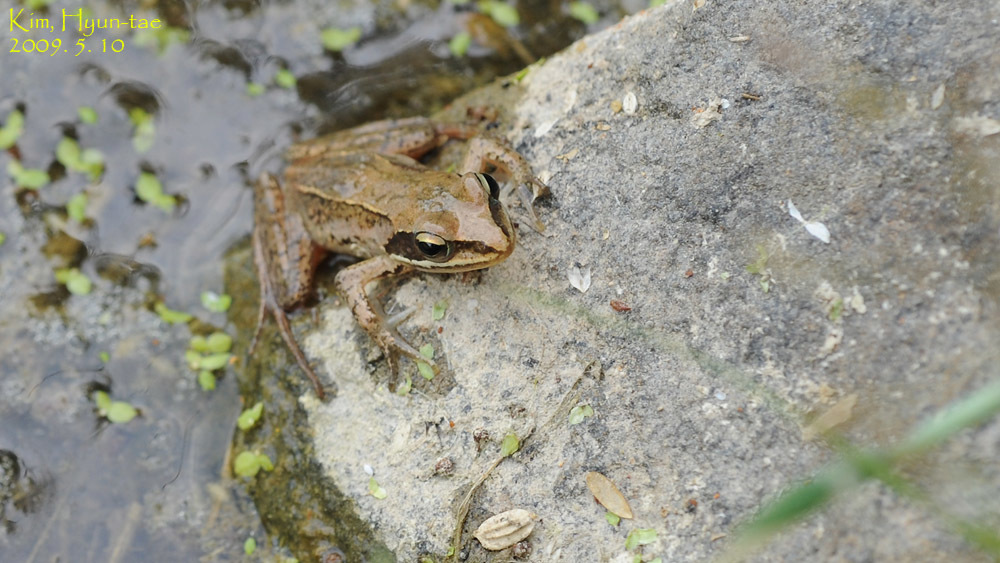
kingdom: Animalia
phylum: Chordata
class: Amphibia
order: Anura
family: Ranidae
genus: Rana
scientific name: Rana coreana
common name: Korean brown frog
